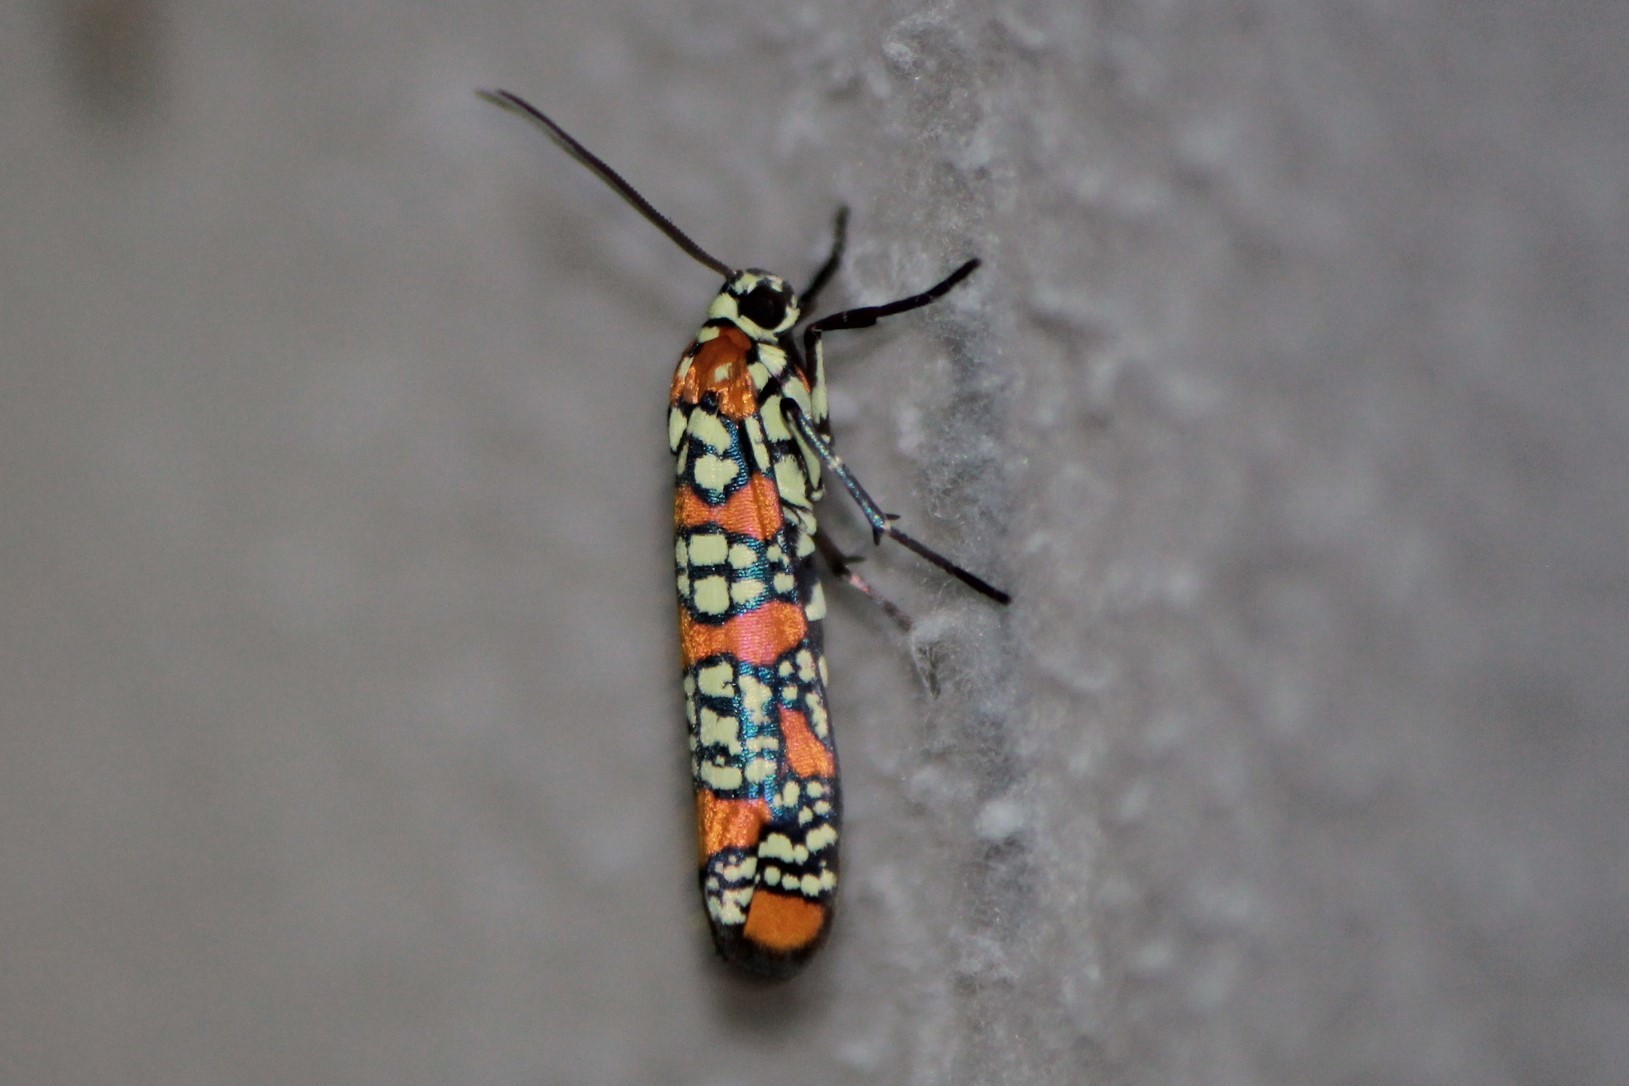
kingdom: Animalia
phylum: Arthropoda
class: Insecta
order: Lepidoptera
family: Attevidae
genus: Atteva
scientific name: Atteva punctella
